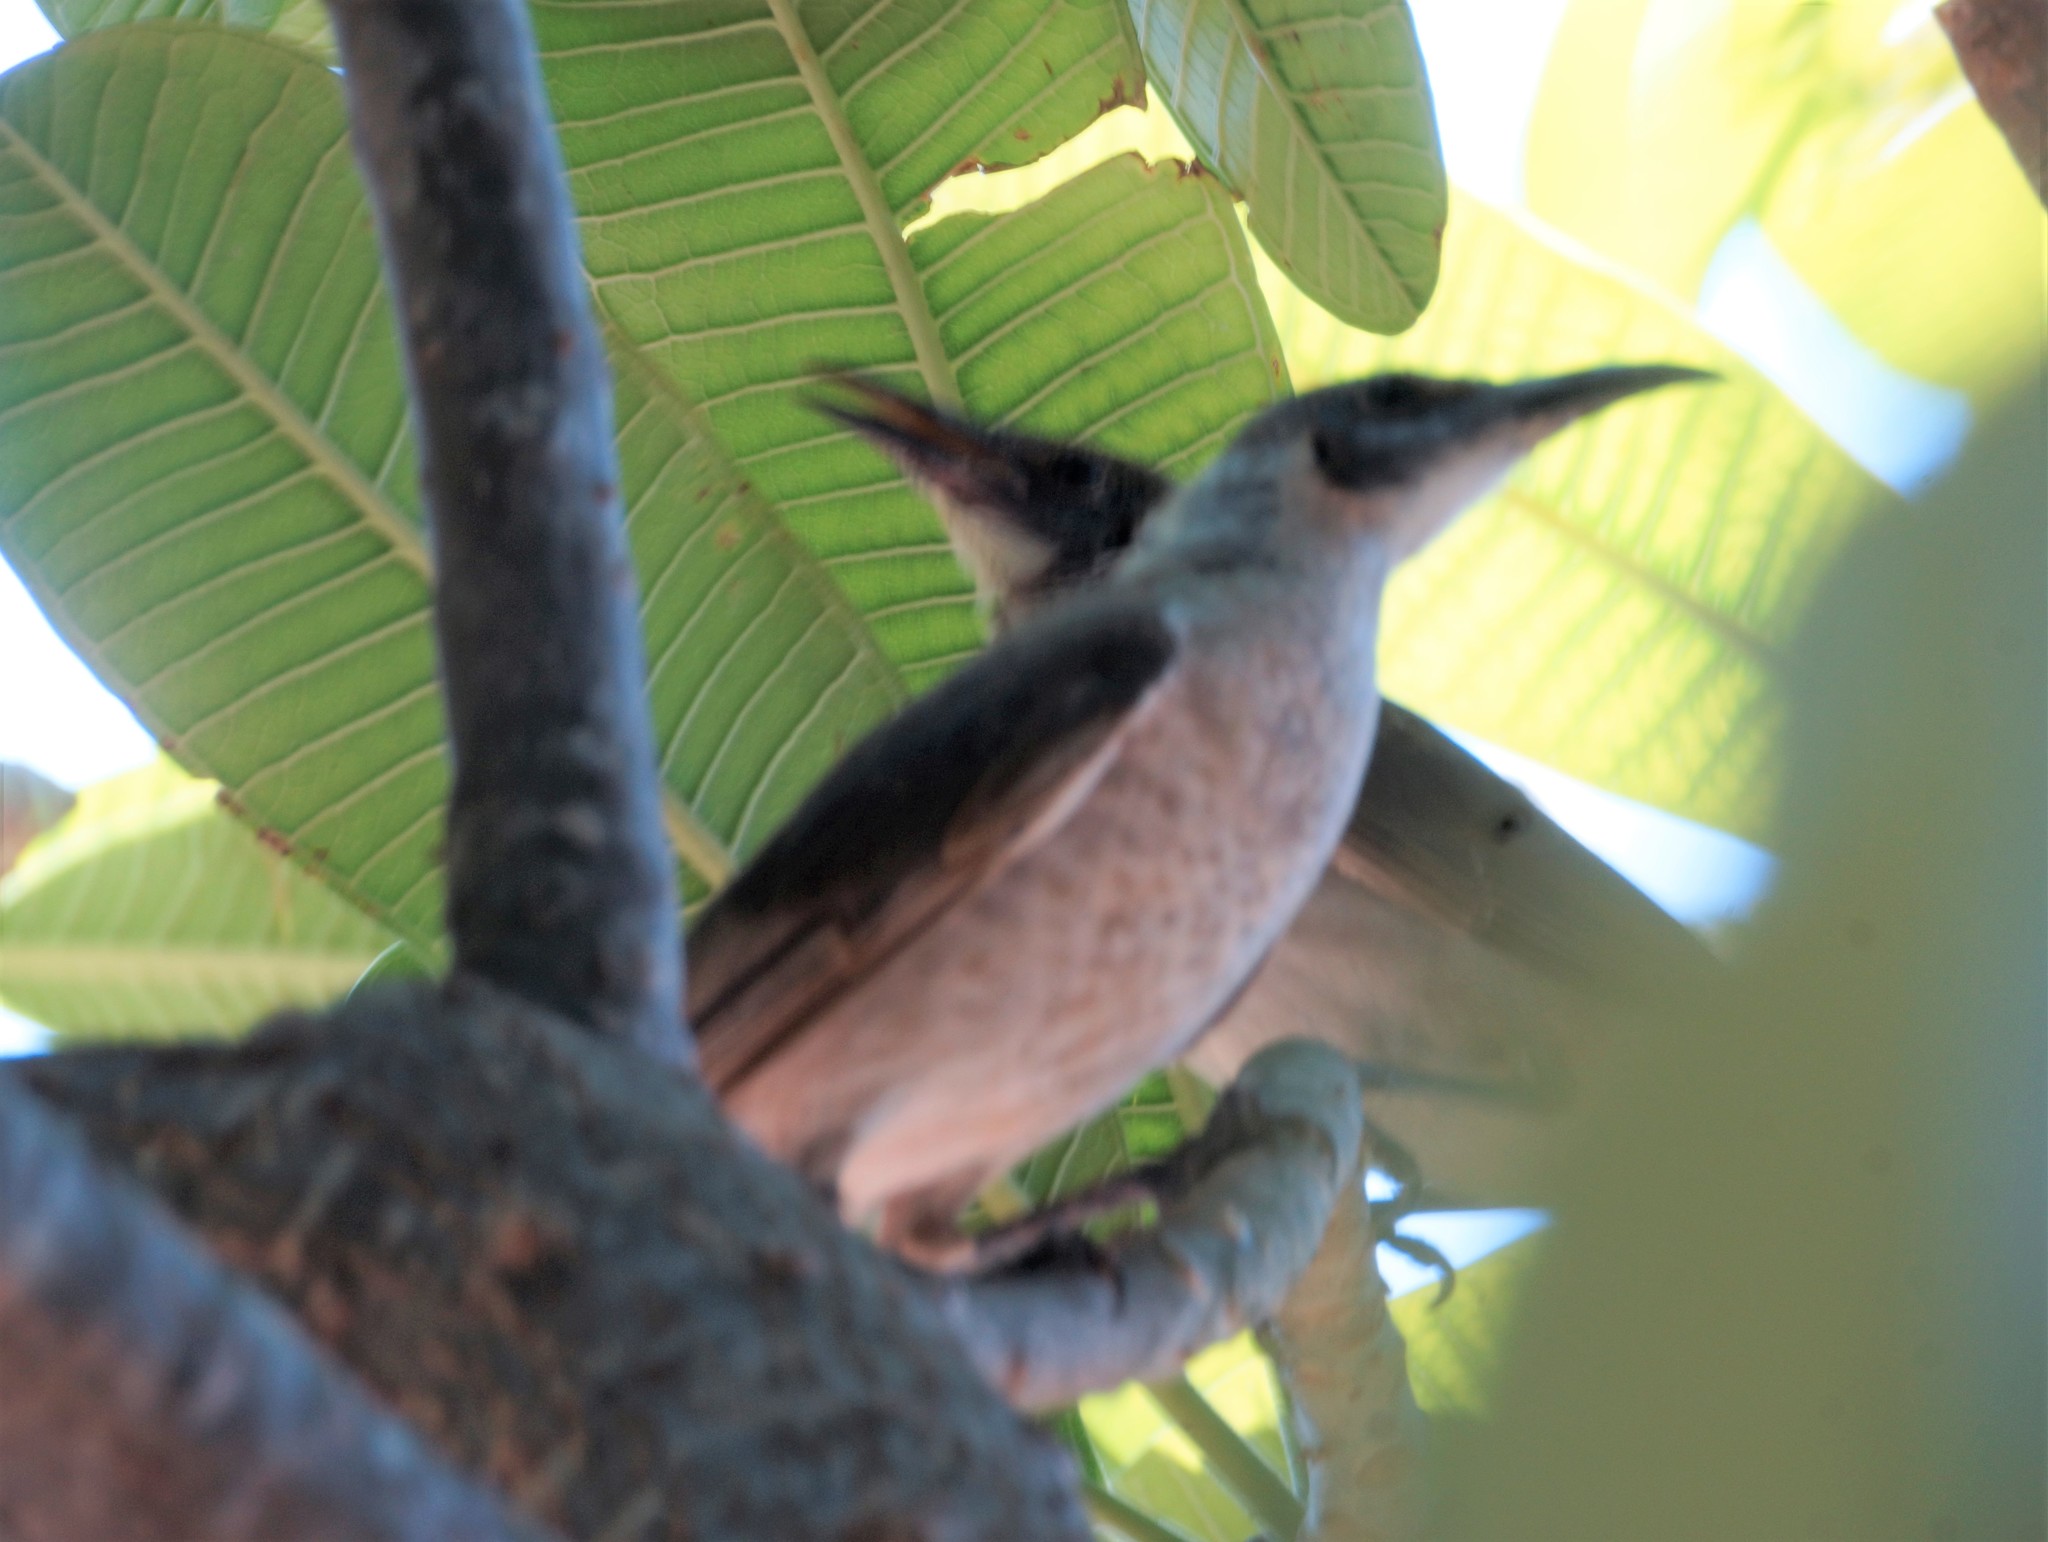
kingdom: Animalia
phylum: Chordata
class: Aves
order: Passeriformes
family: Meliphagidae
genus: Philemon
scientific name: Philemon citreogularis
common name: Little friarbird
